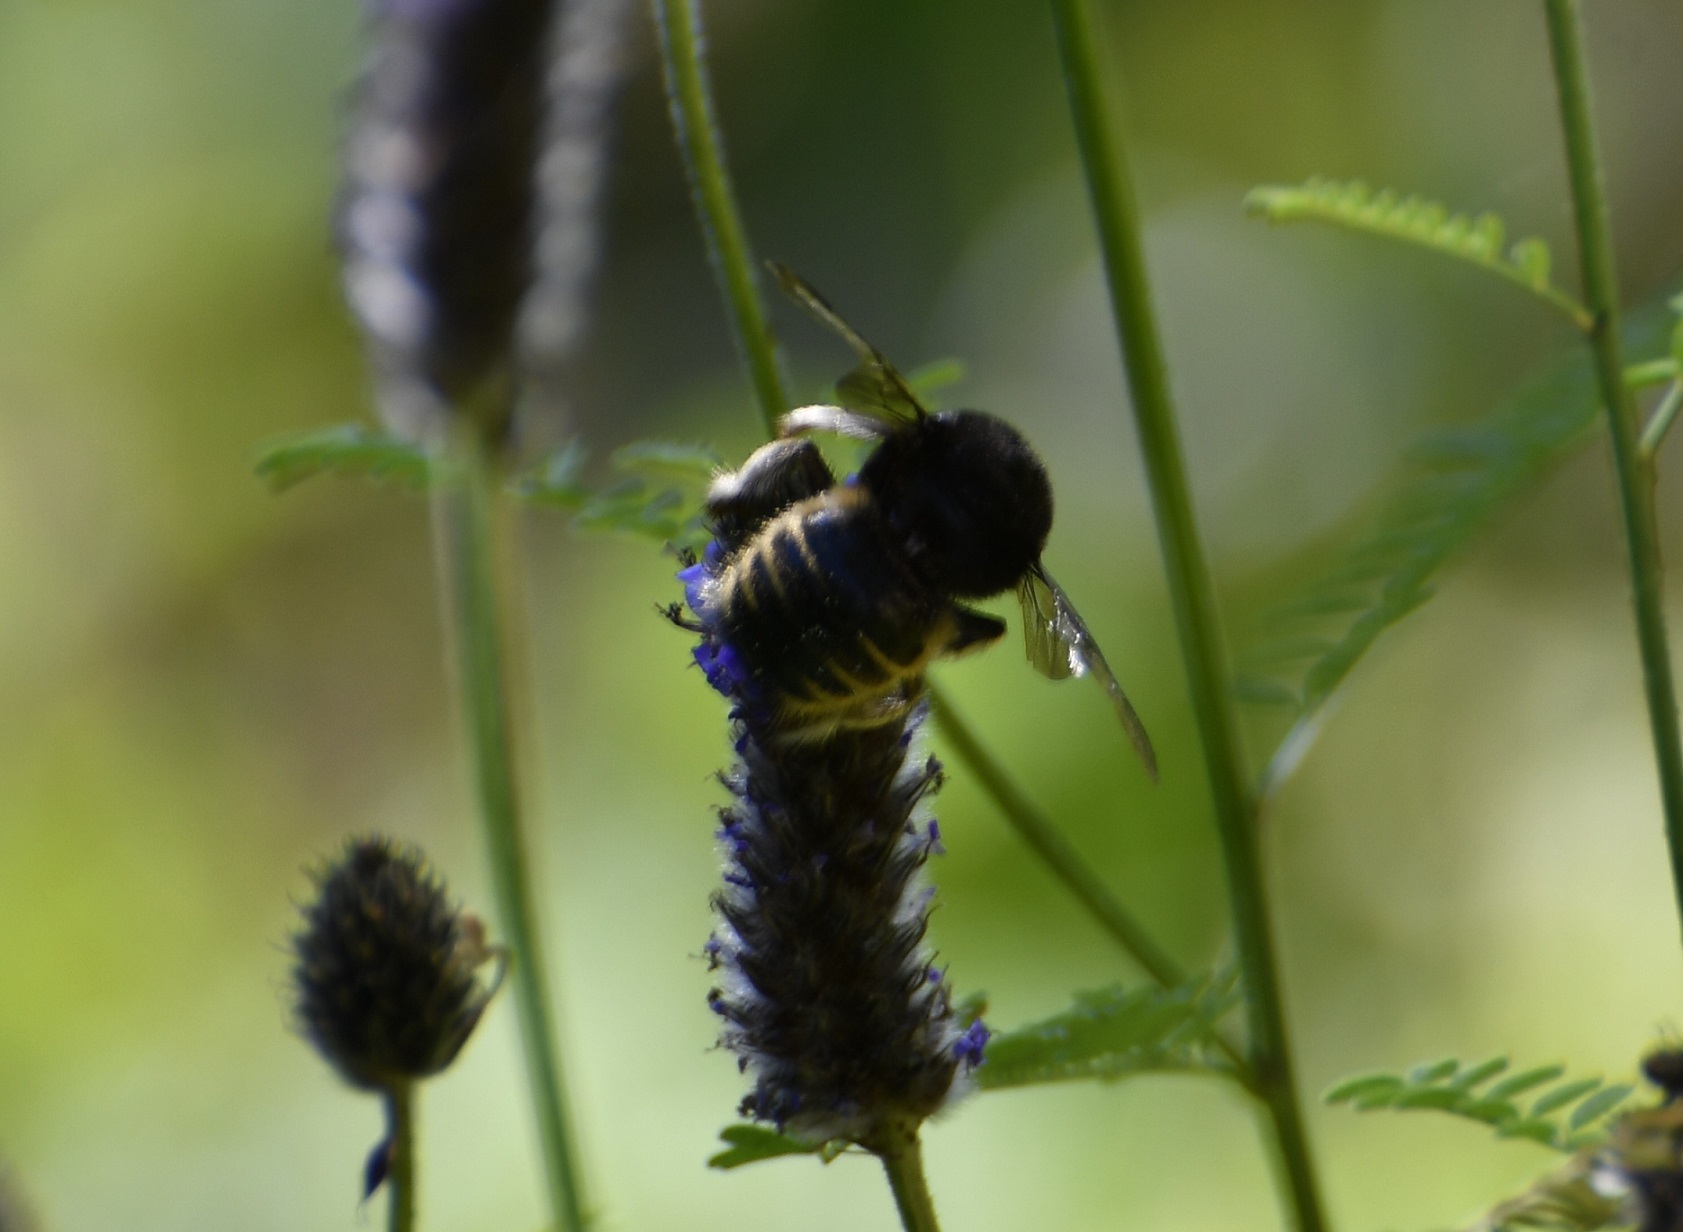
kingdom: Animalia
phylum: Arthropoda
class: Insecta
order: Hymenoptera
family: Apidae
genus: Xylocopa
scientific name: Xylocopa tabaniformis
